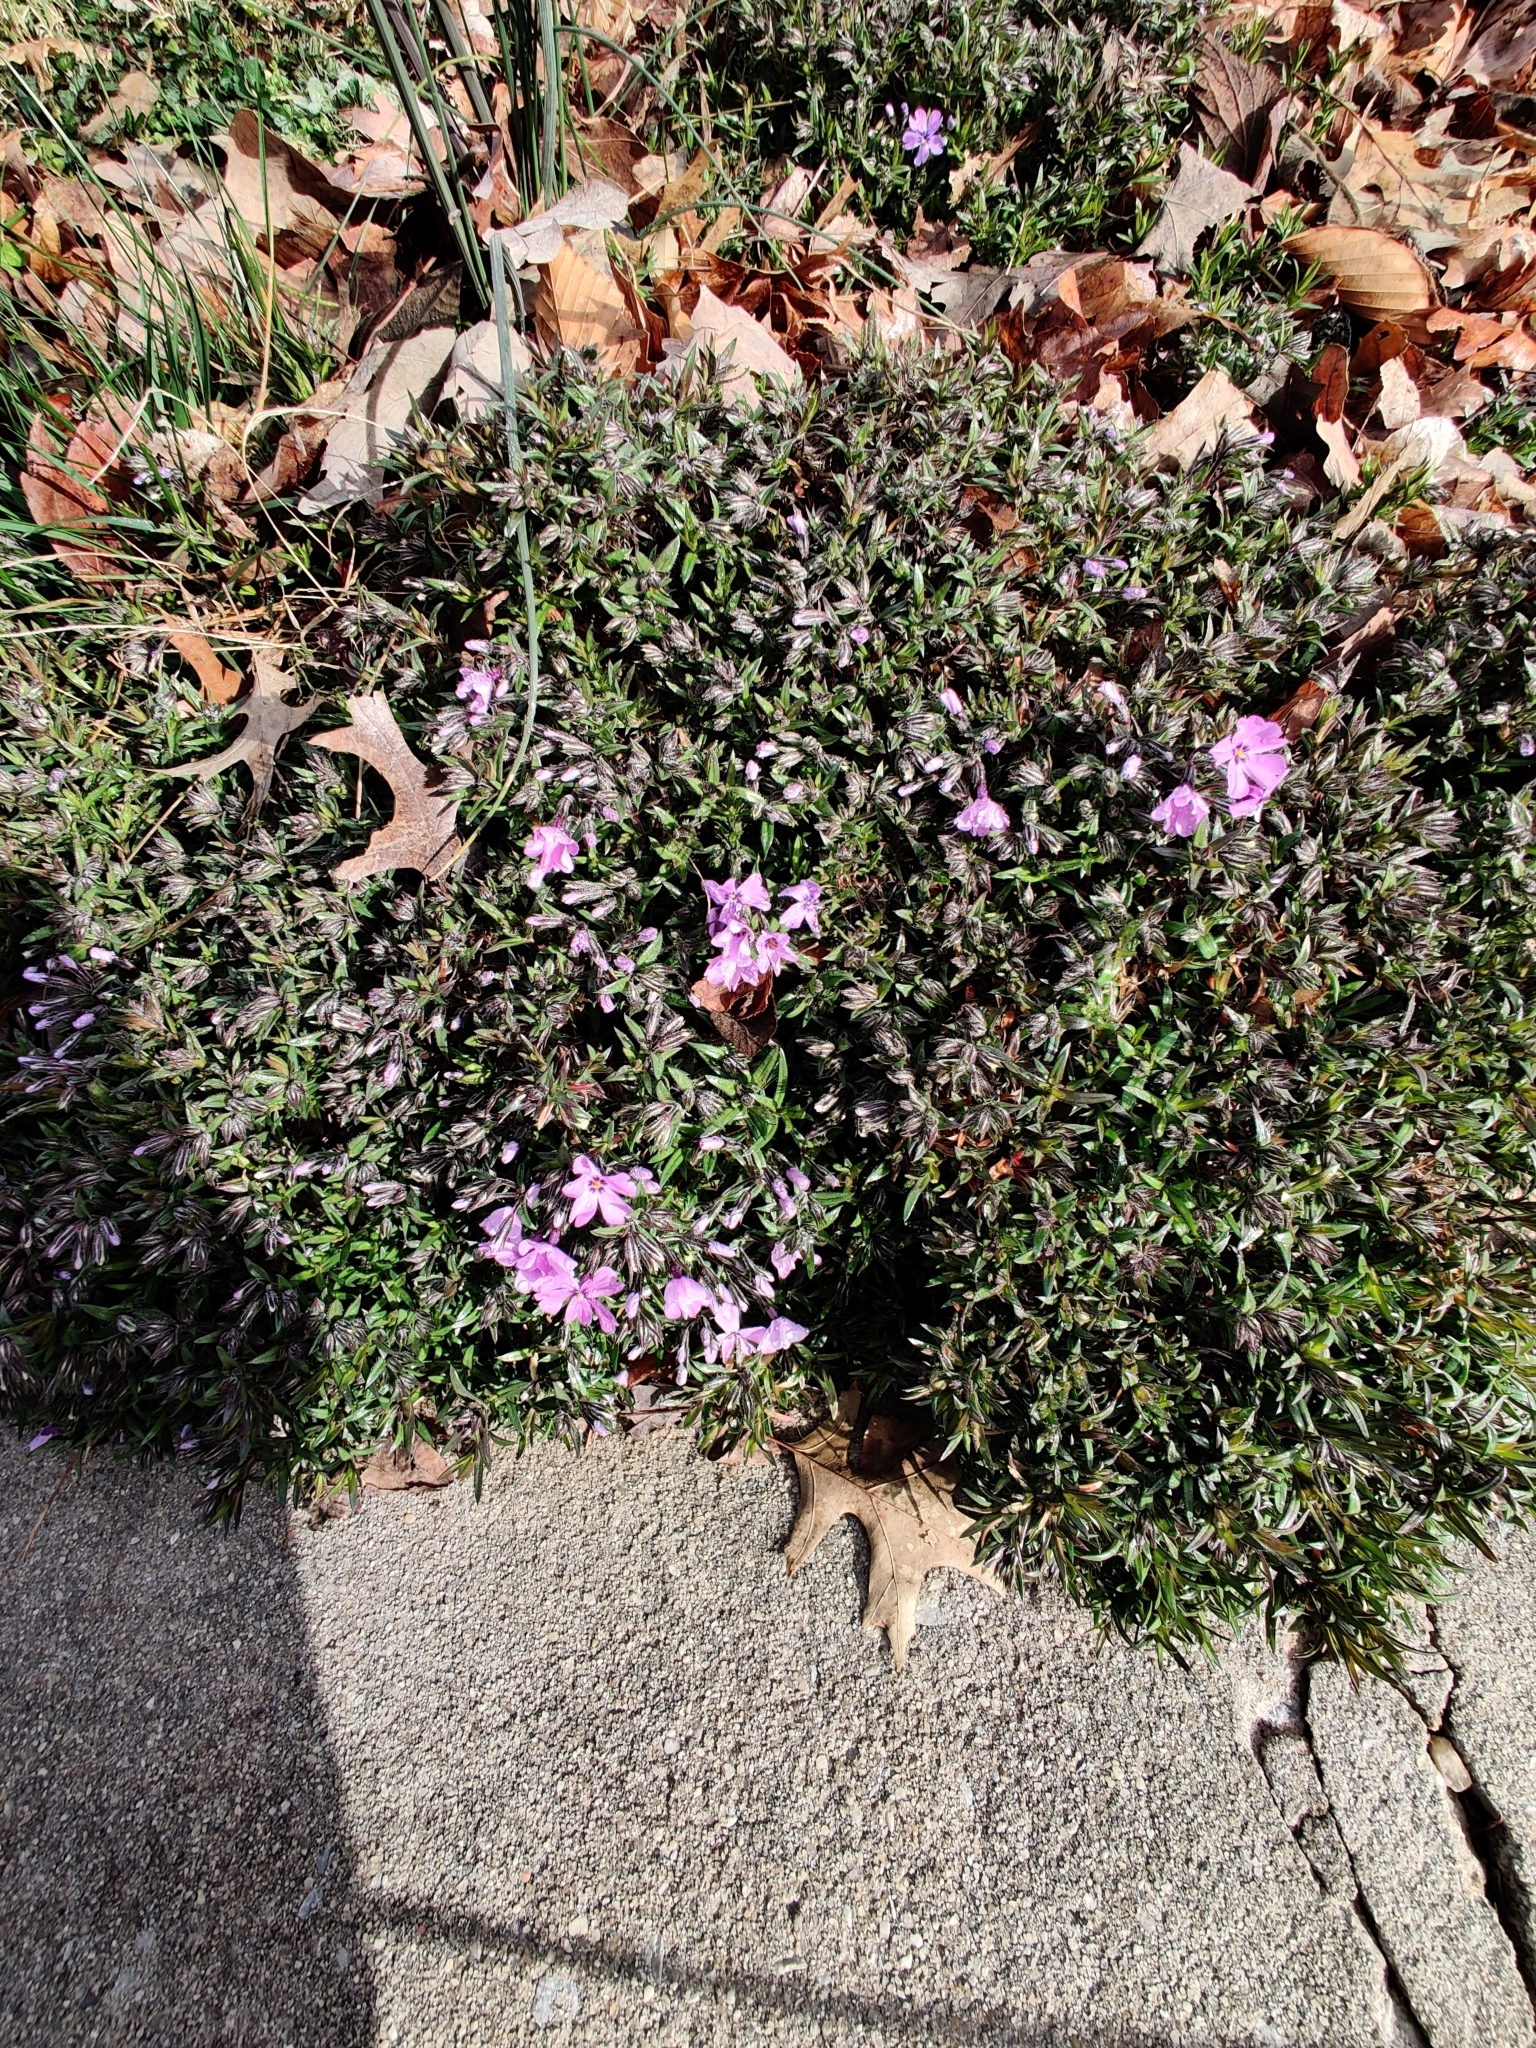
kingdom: Plantae
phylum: Tracheophyta
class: Magnoliopsida
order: Ericales
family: Polemoniaceae
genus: Phlox
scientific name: Phlox subulata
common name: Moss phlox
